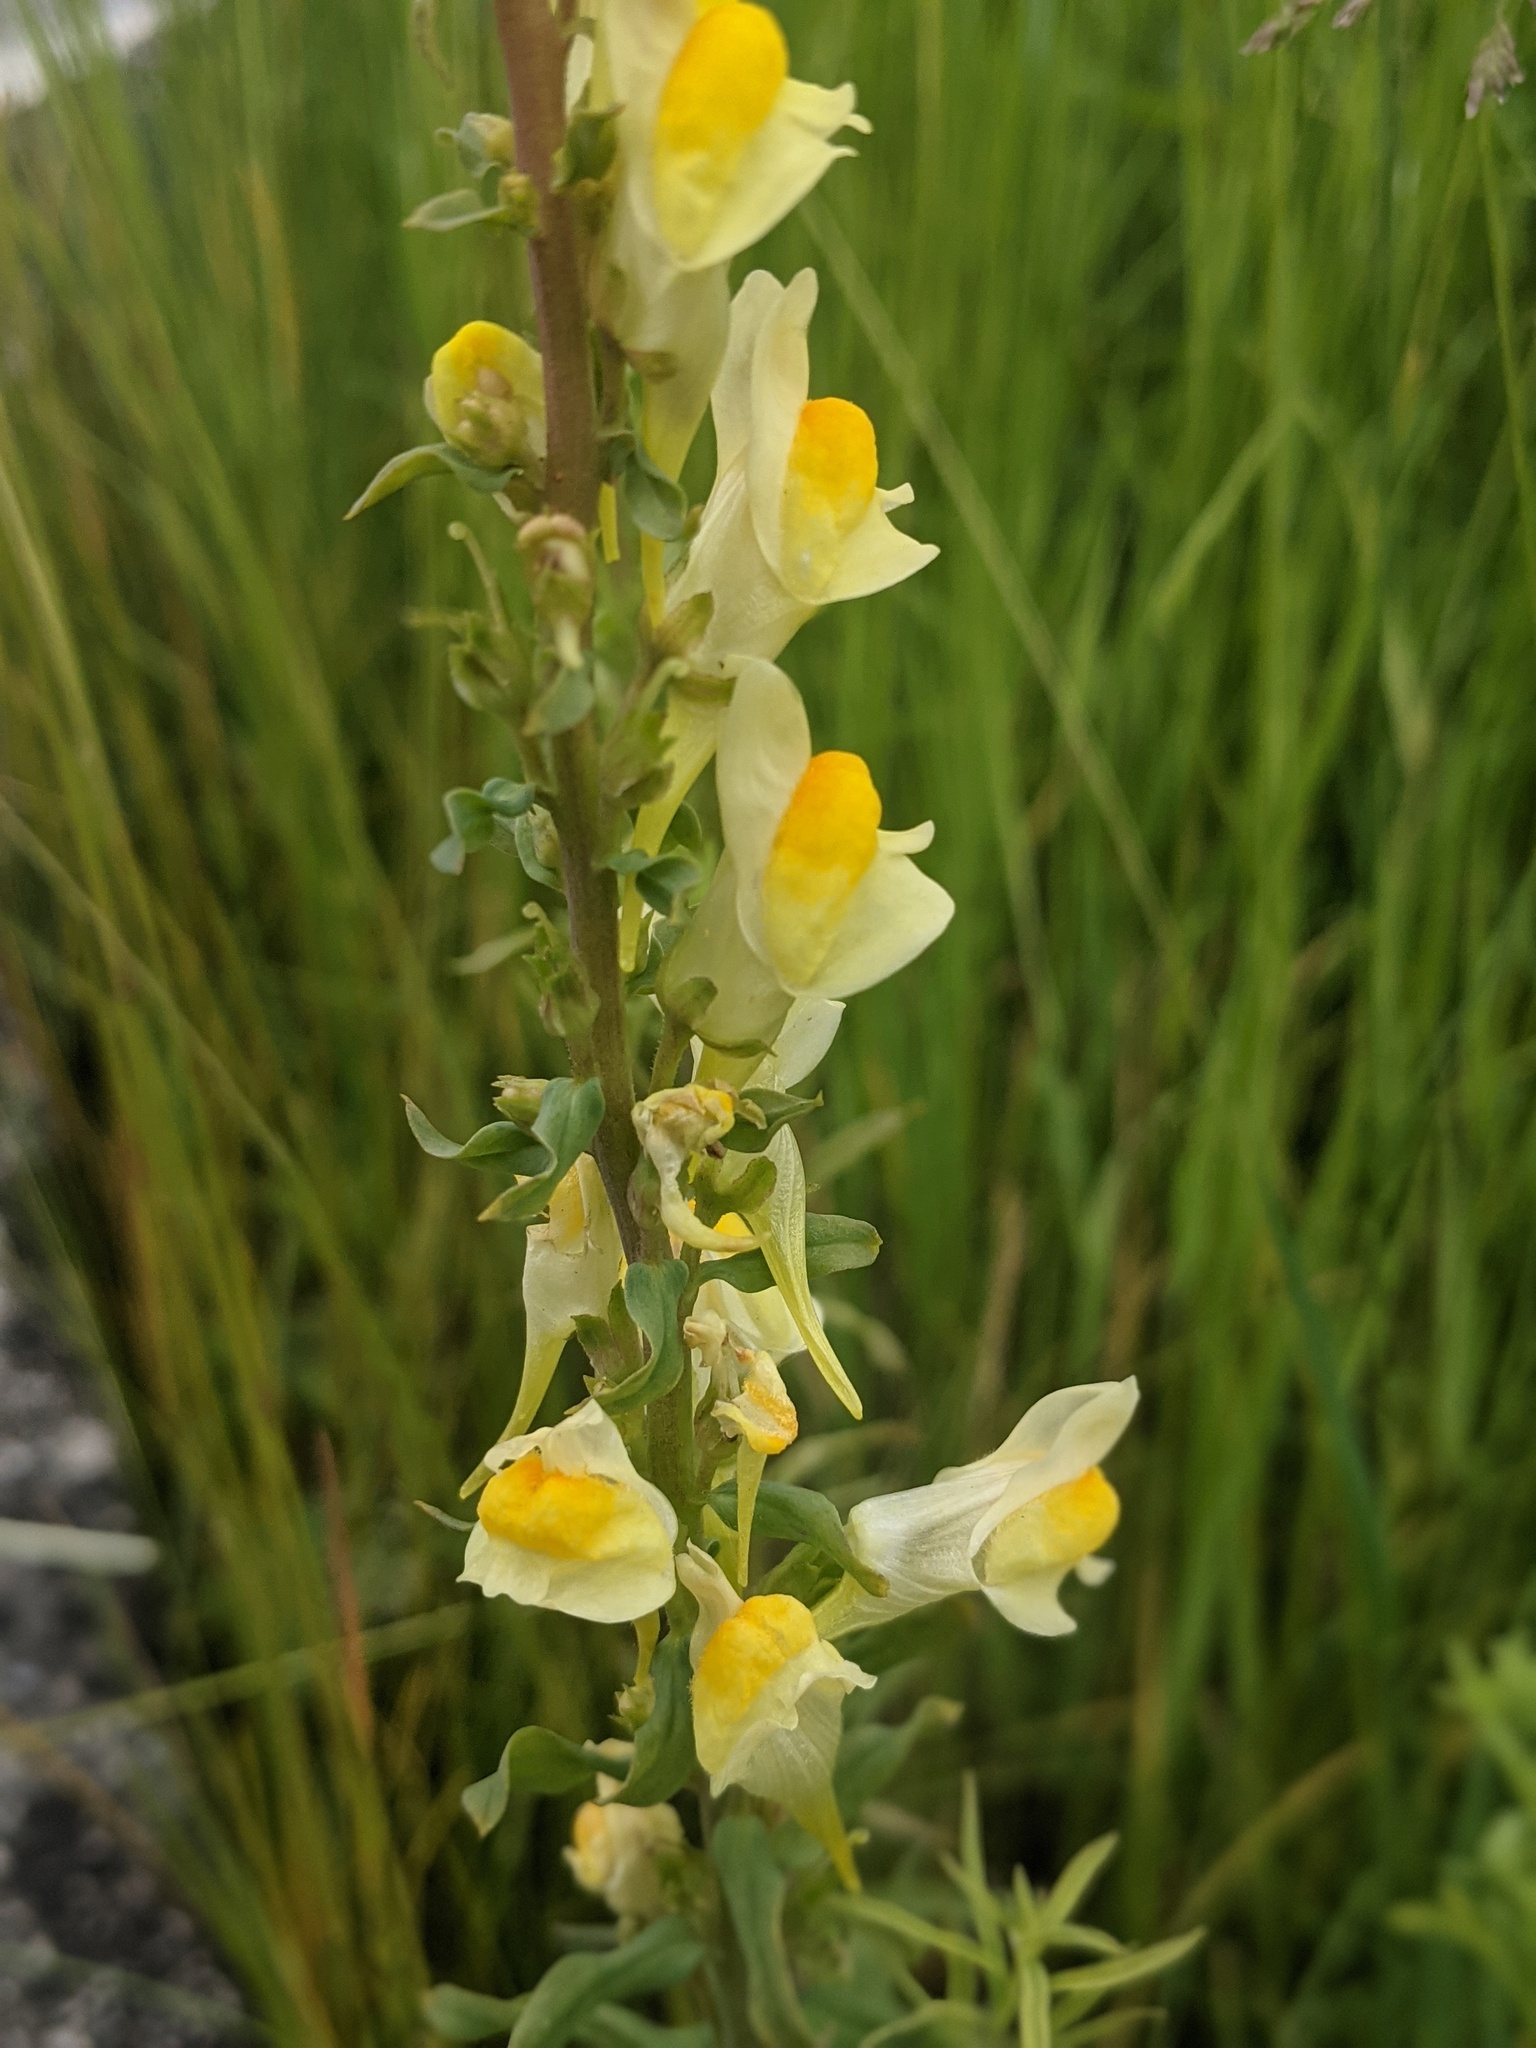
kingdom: Plantae
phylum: Tracheophyta
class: Magnoliopsida
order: Lamiales
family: Plantaginaceae
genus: Linaria
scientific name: Linaria vulgaris
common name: Butter and eggs
